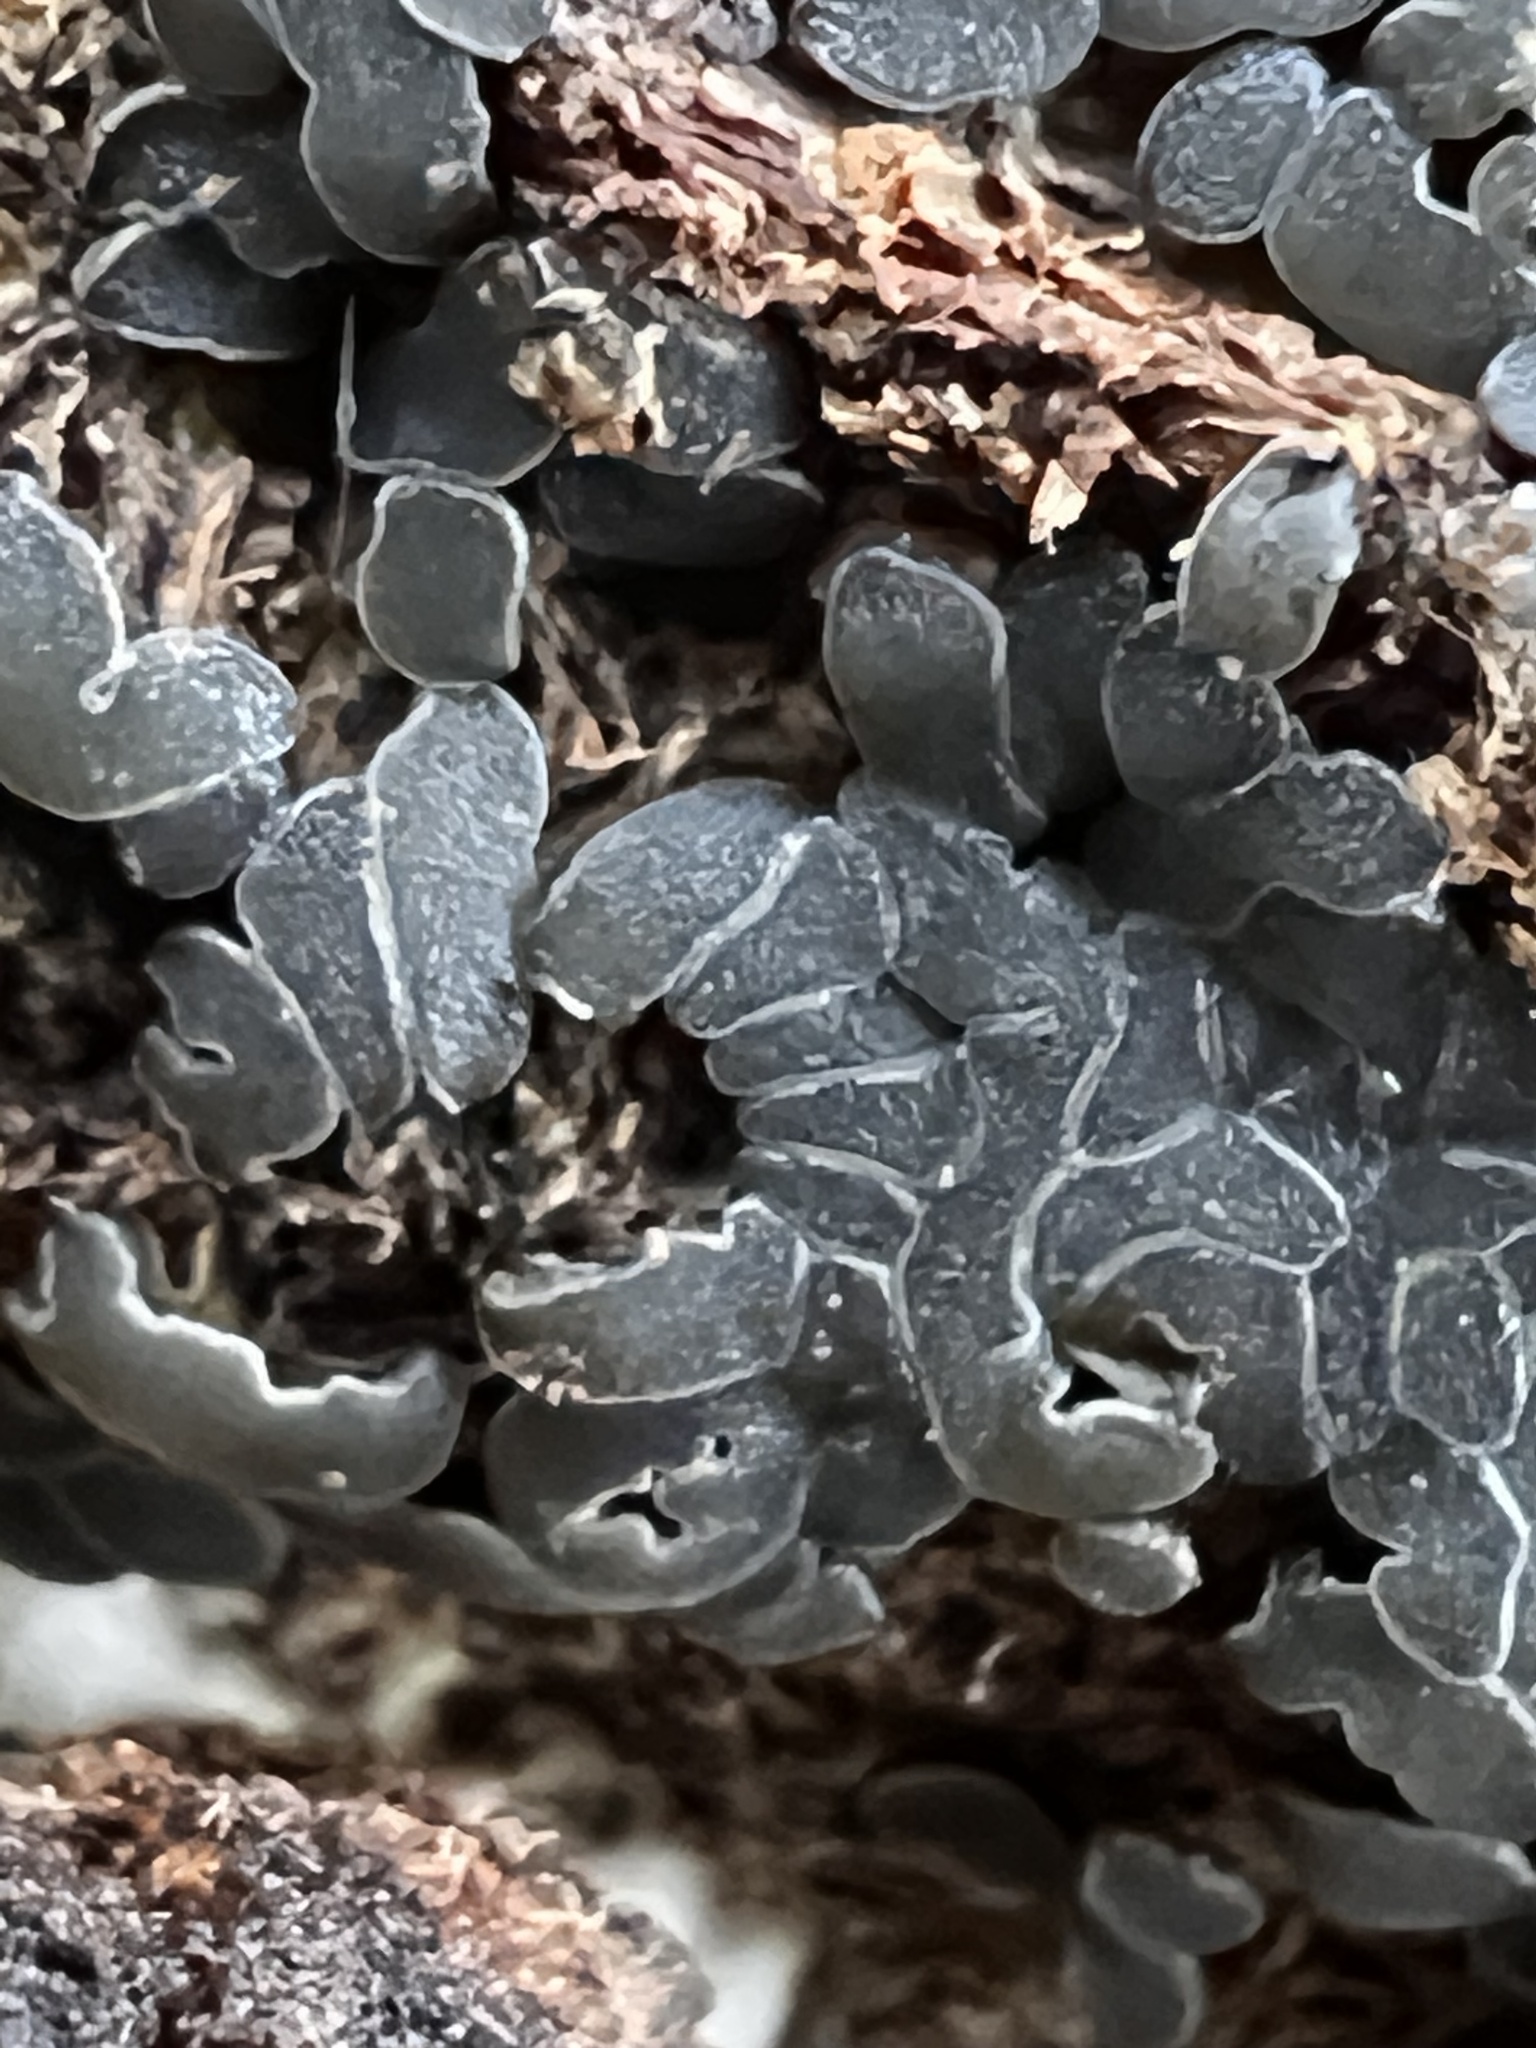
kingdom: Fungi
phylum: Ascomycota
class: Leotiomycetes
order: Helotiales
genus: Angelina
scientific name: Angelina rufescens
